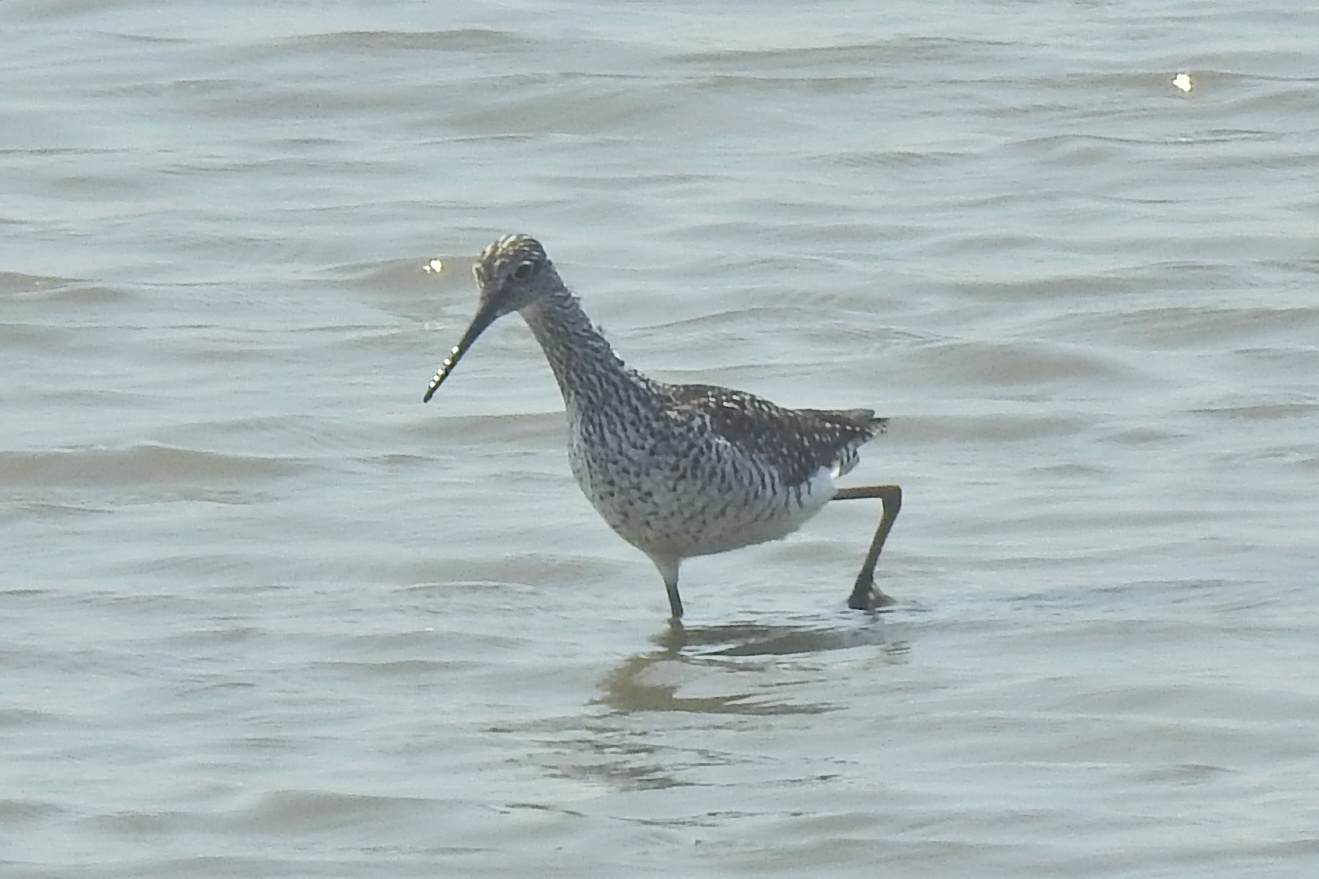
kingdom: Animalia
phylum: Chordata
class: Aves
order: Charadriiformes
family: Scolopacidae
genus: Tringa
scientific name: Tringa melanoleuca
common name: Greater yellowlegs
